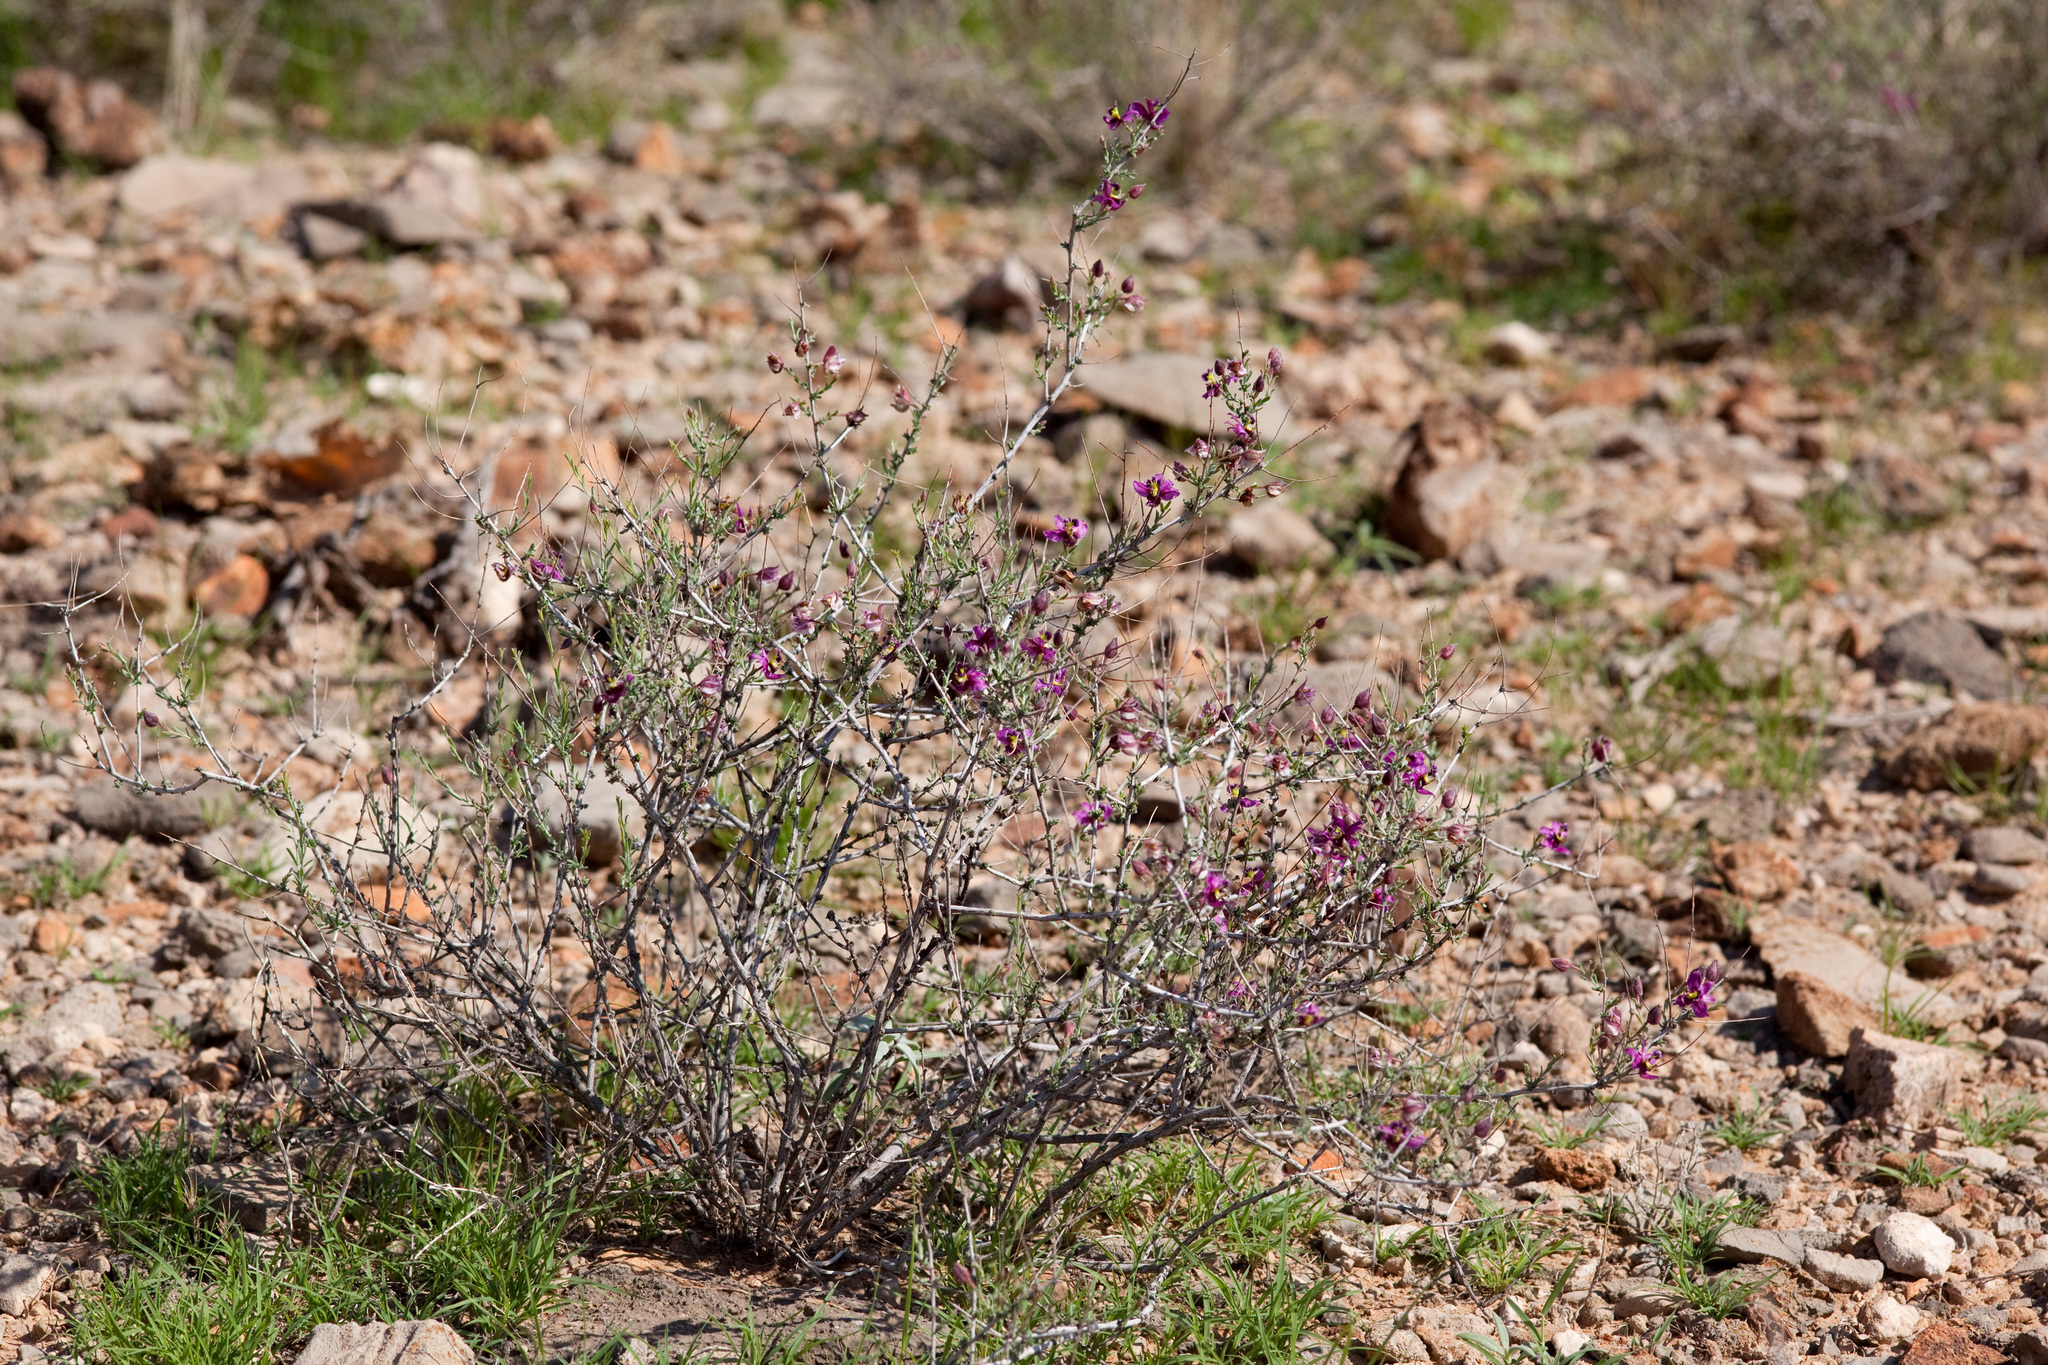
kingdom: Plantae
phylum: Tracheophyta
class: Magnoliopsida
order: Zygophyllales
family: Krameriaceae
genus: Krameria
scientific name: Krameria erecta
